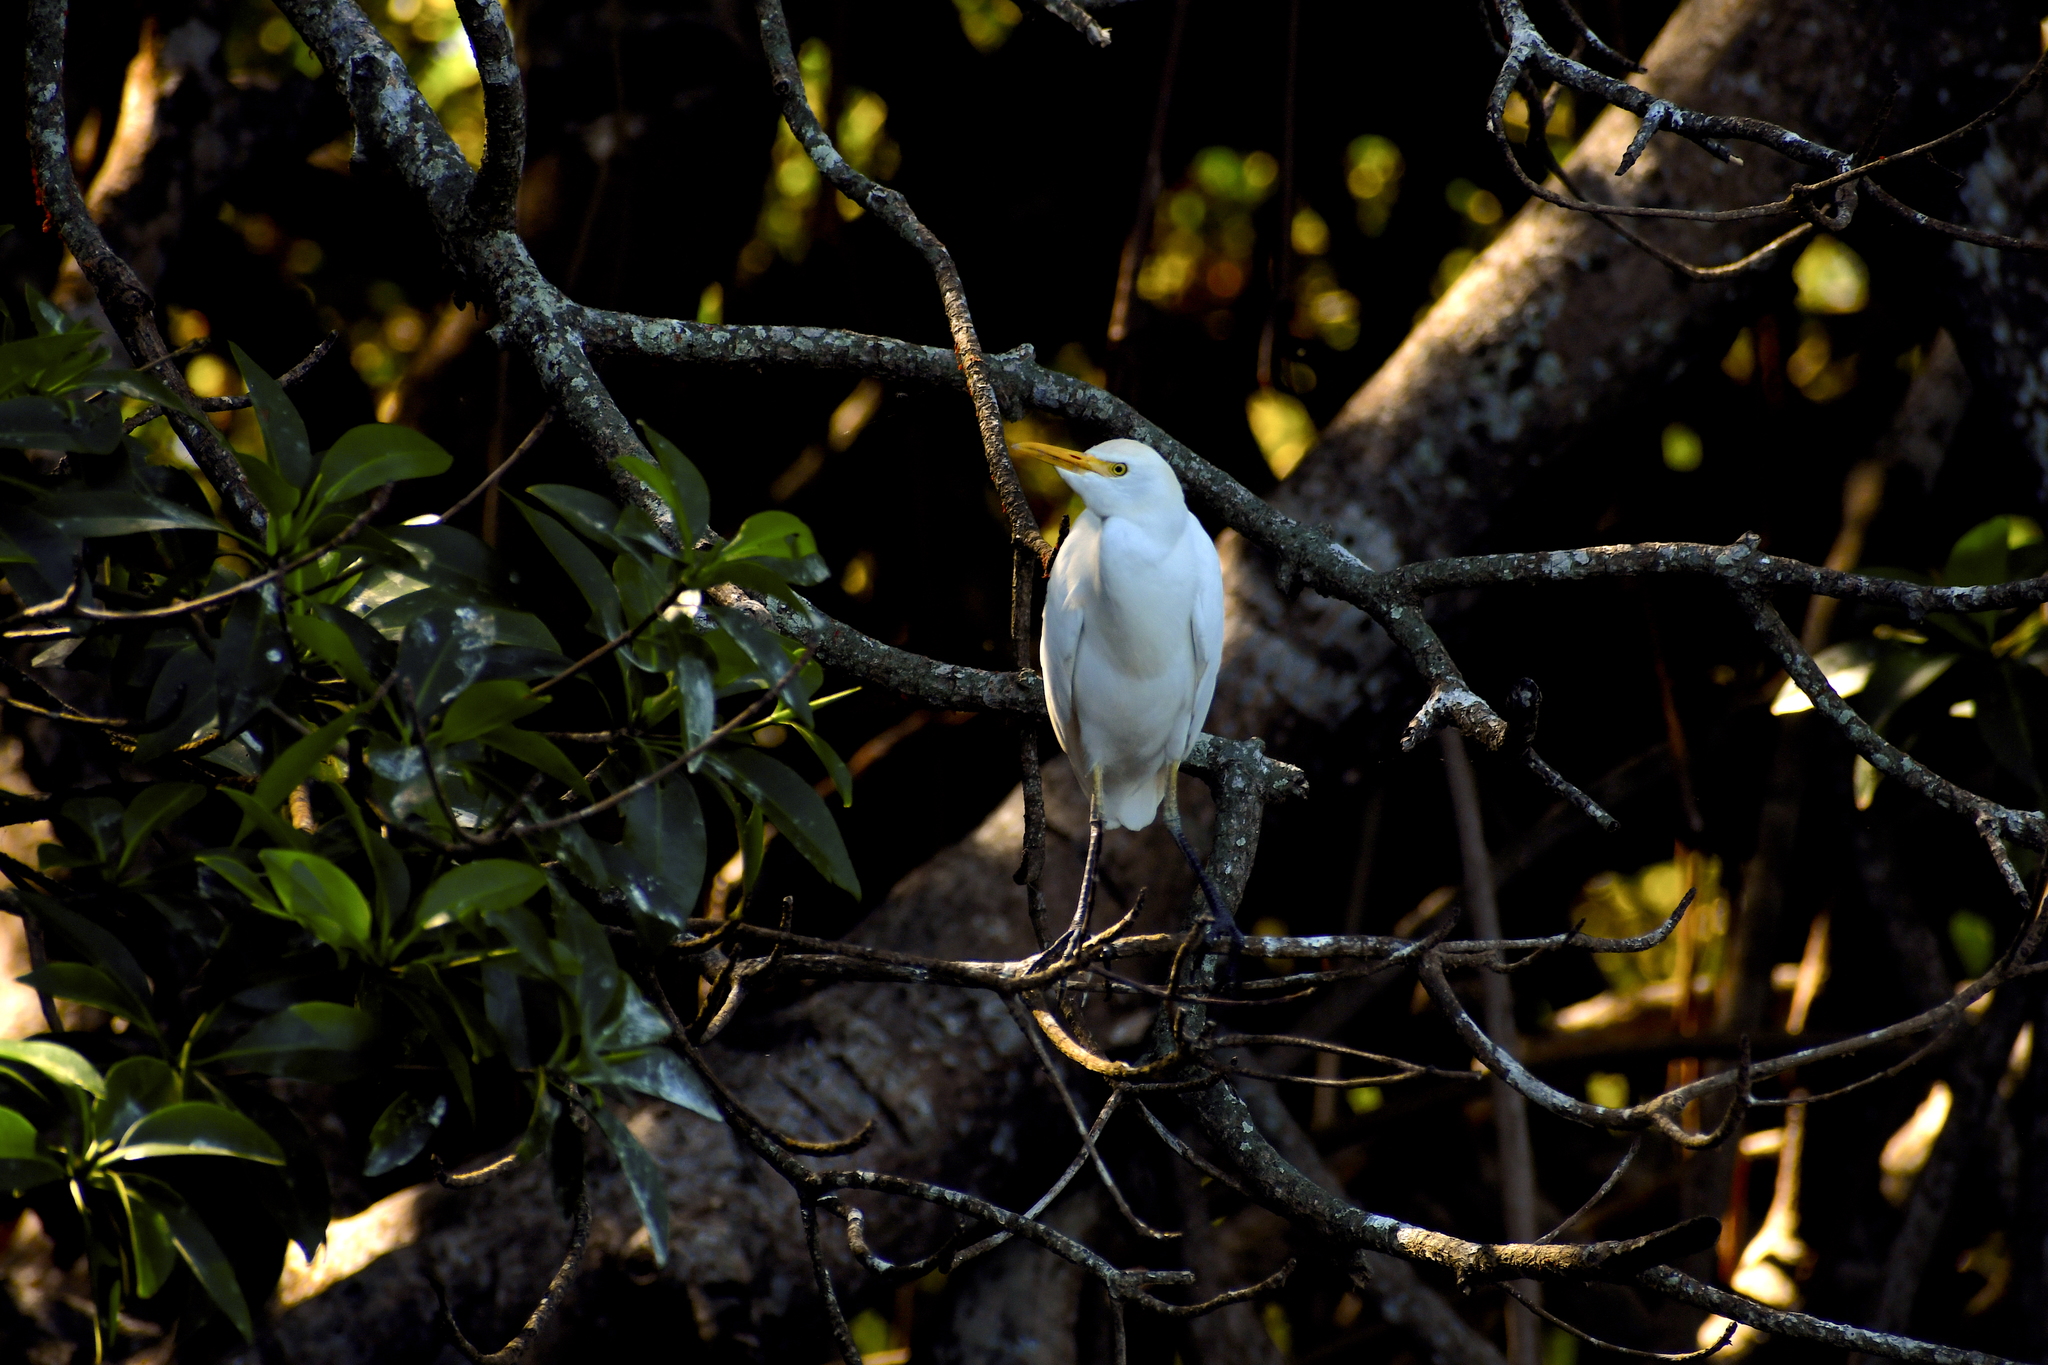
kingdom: Animalia
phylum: Chordata
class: Aves
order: Pelecaniformes
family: Ardeidae
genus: Bubulcus
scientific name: Bubulcus ibis
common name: Cattle egret
